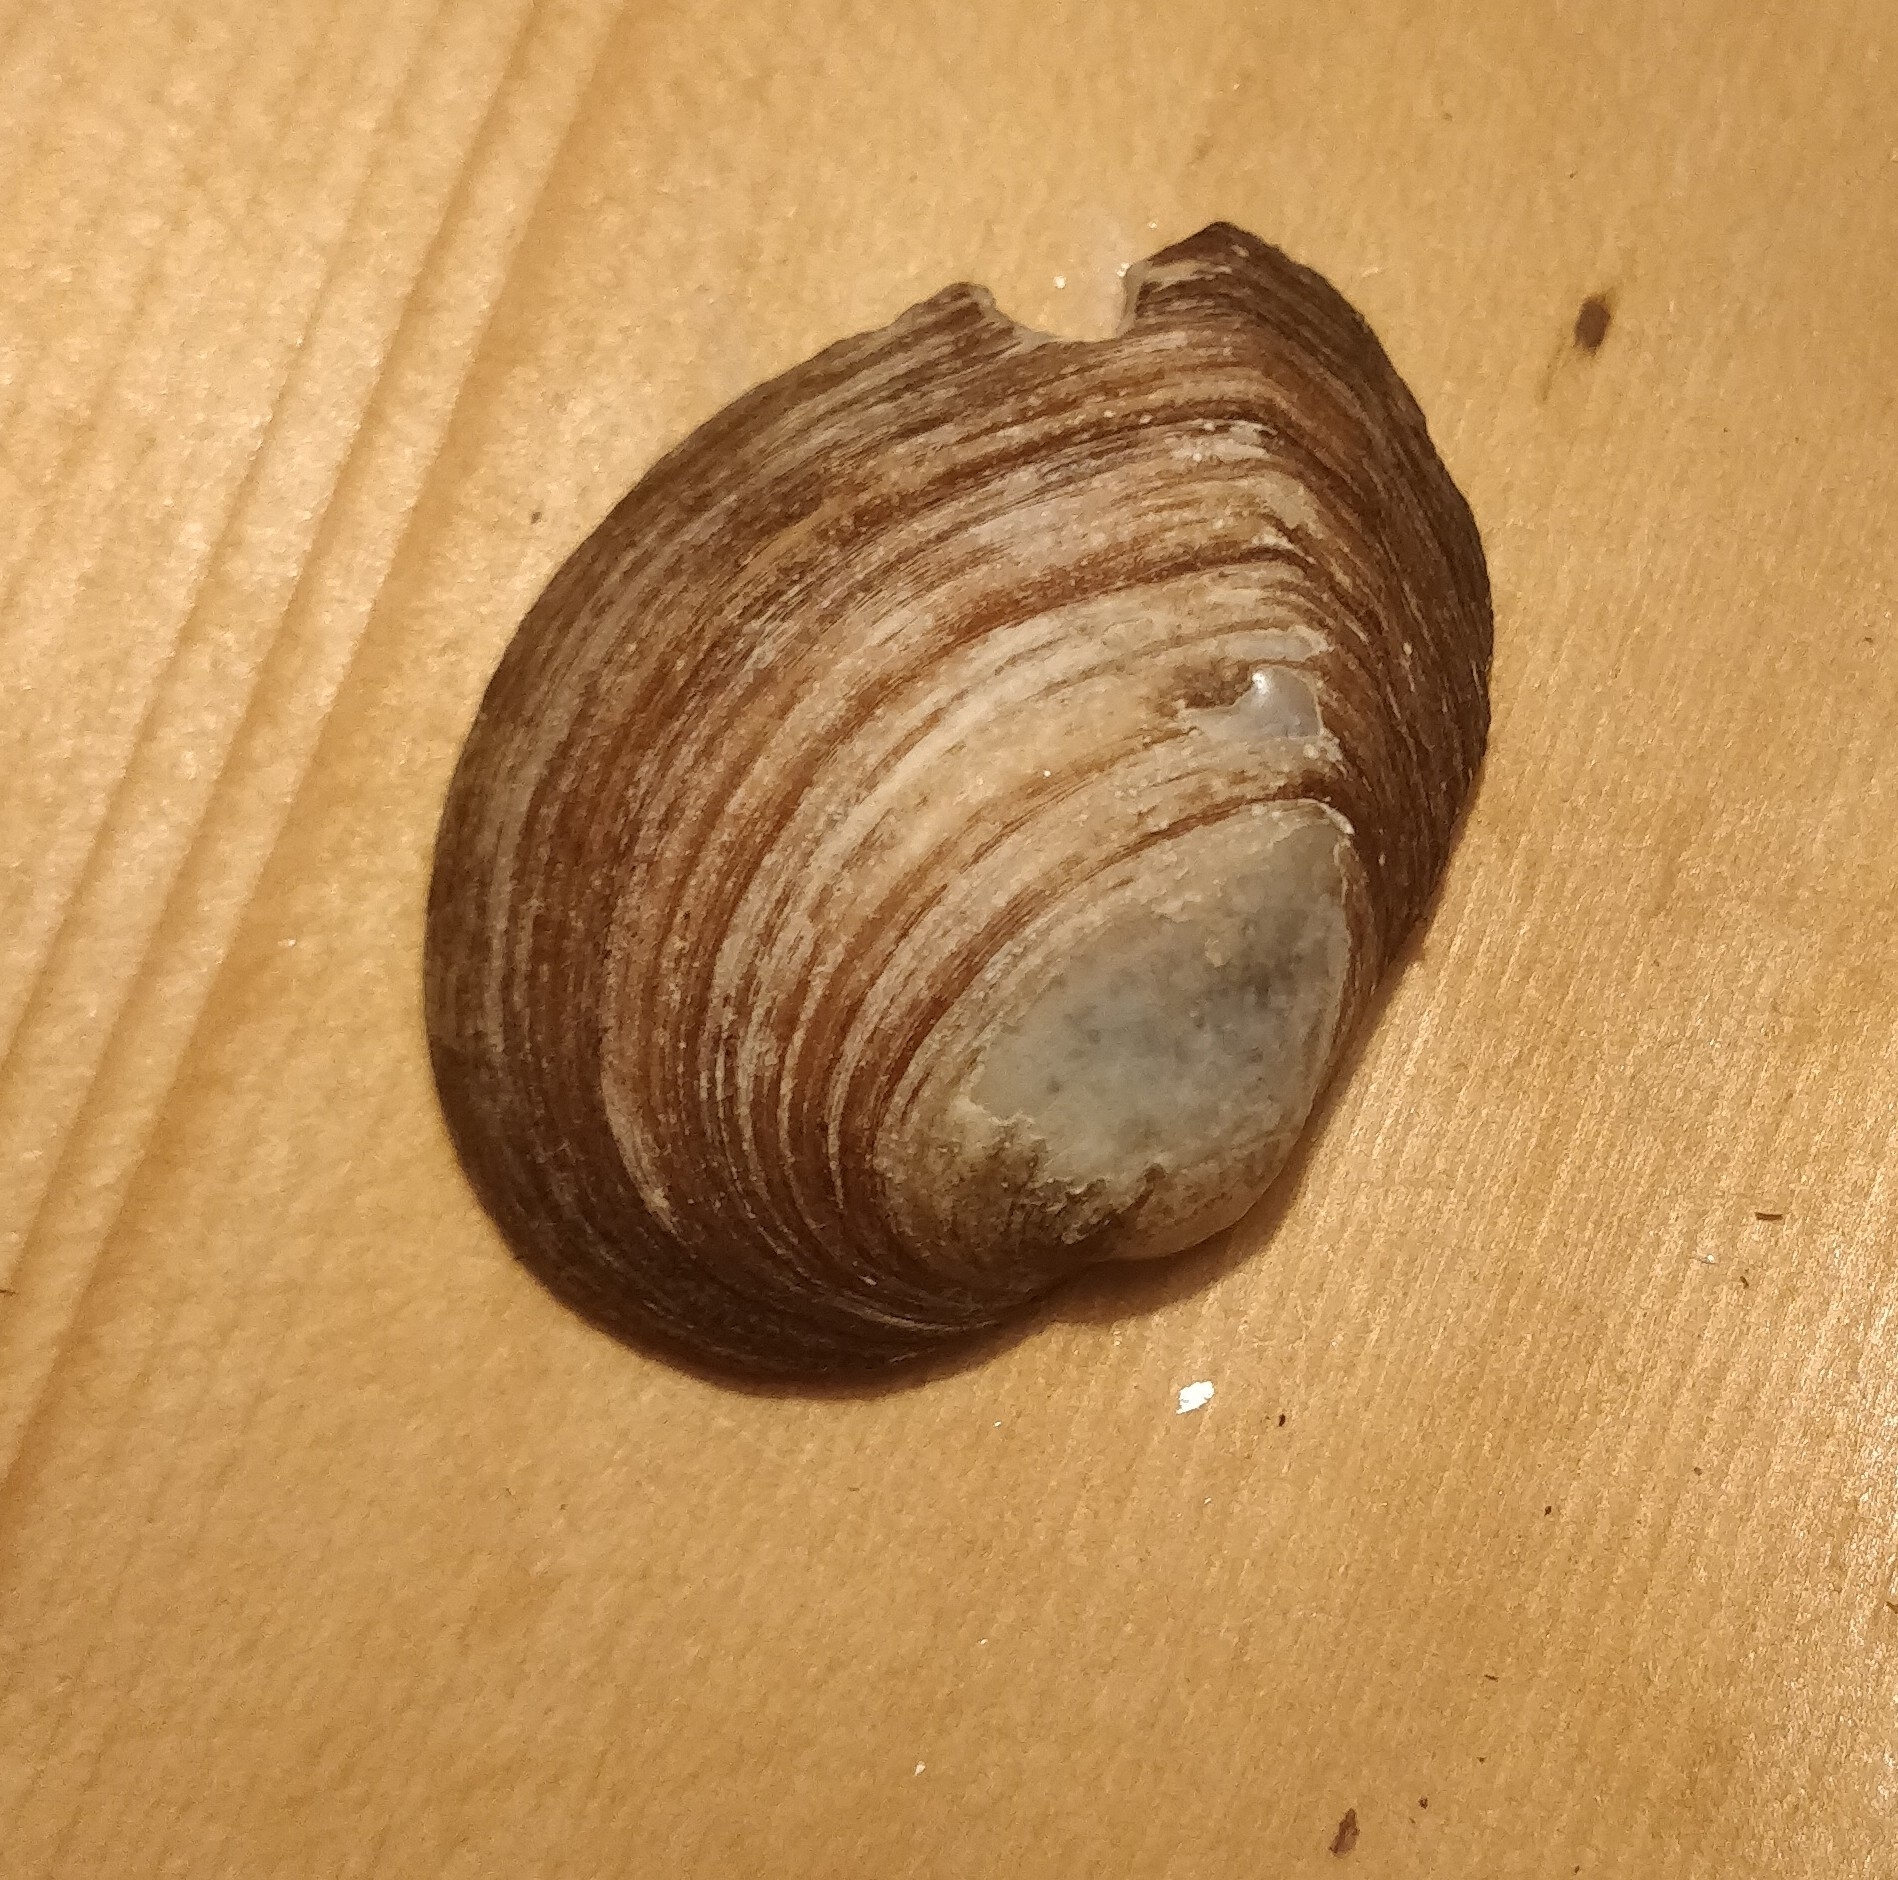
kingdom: Animalia
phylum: Mollusca
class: Bivalvia
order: Unionida
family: Unionidae
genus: Fusconaia
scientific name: Fusconaia flava
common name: Wabash pigtoe
